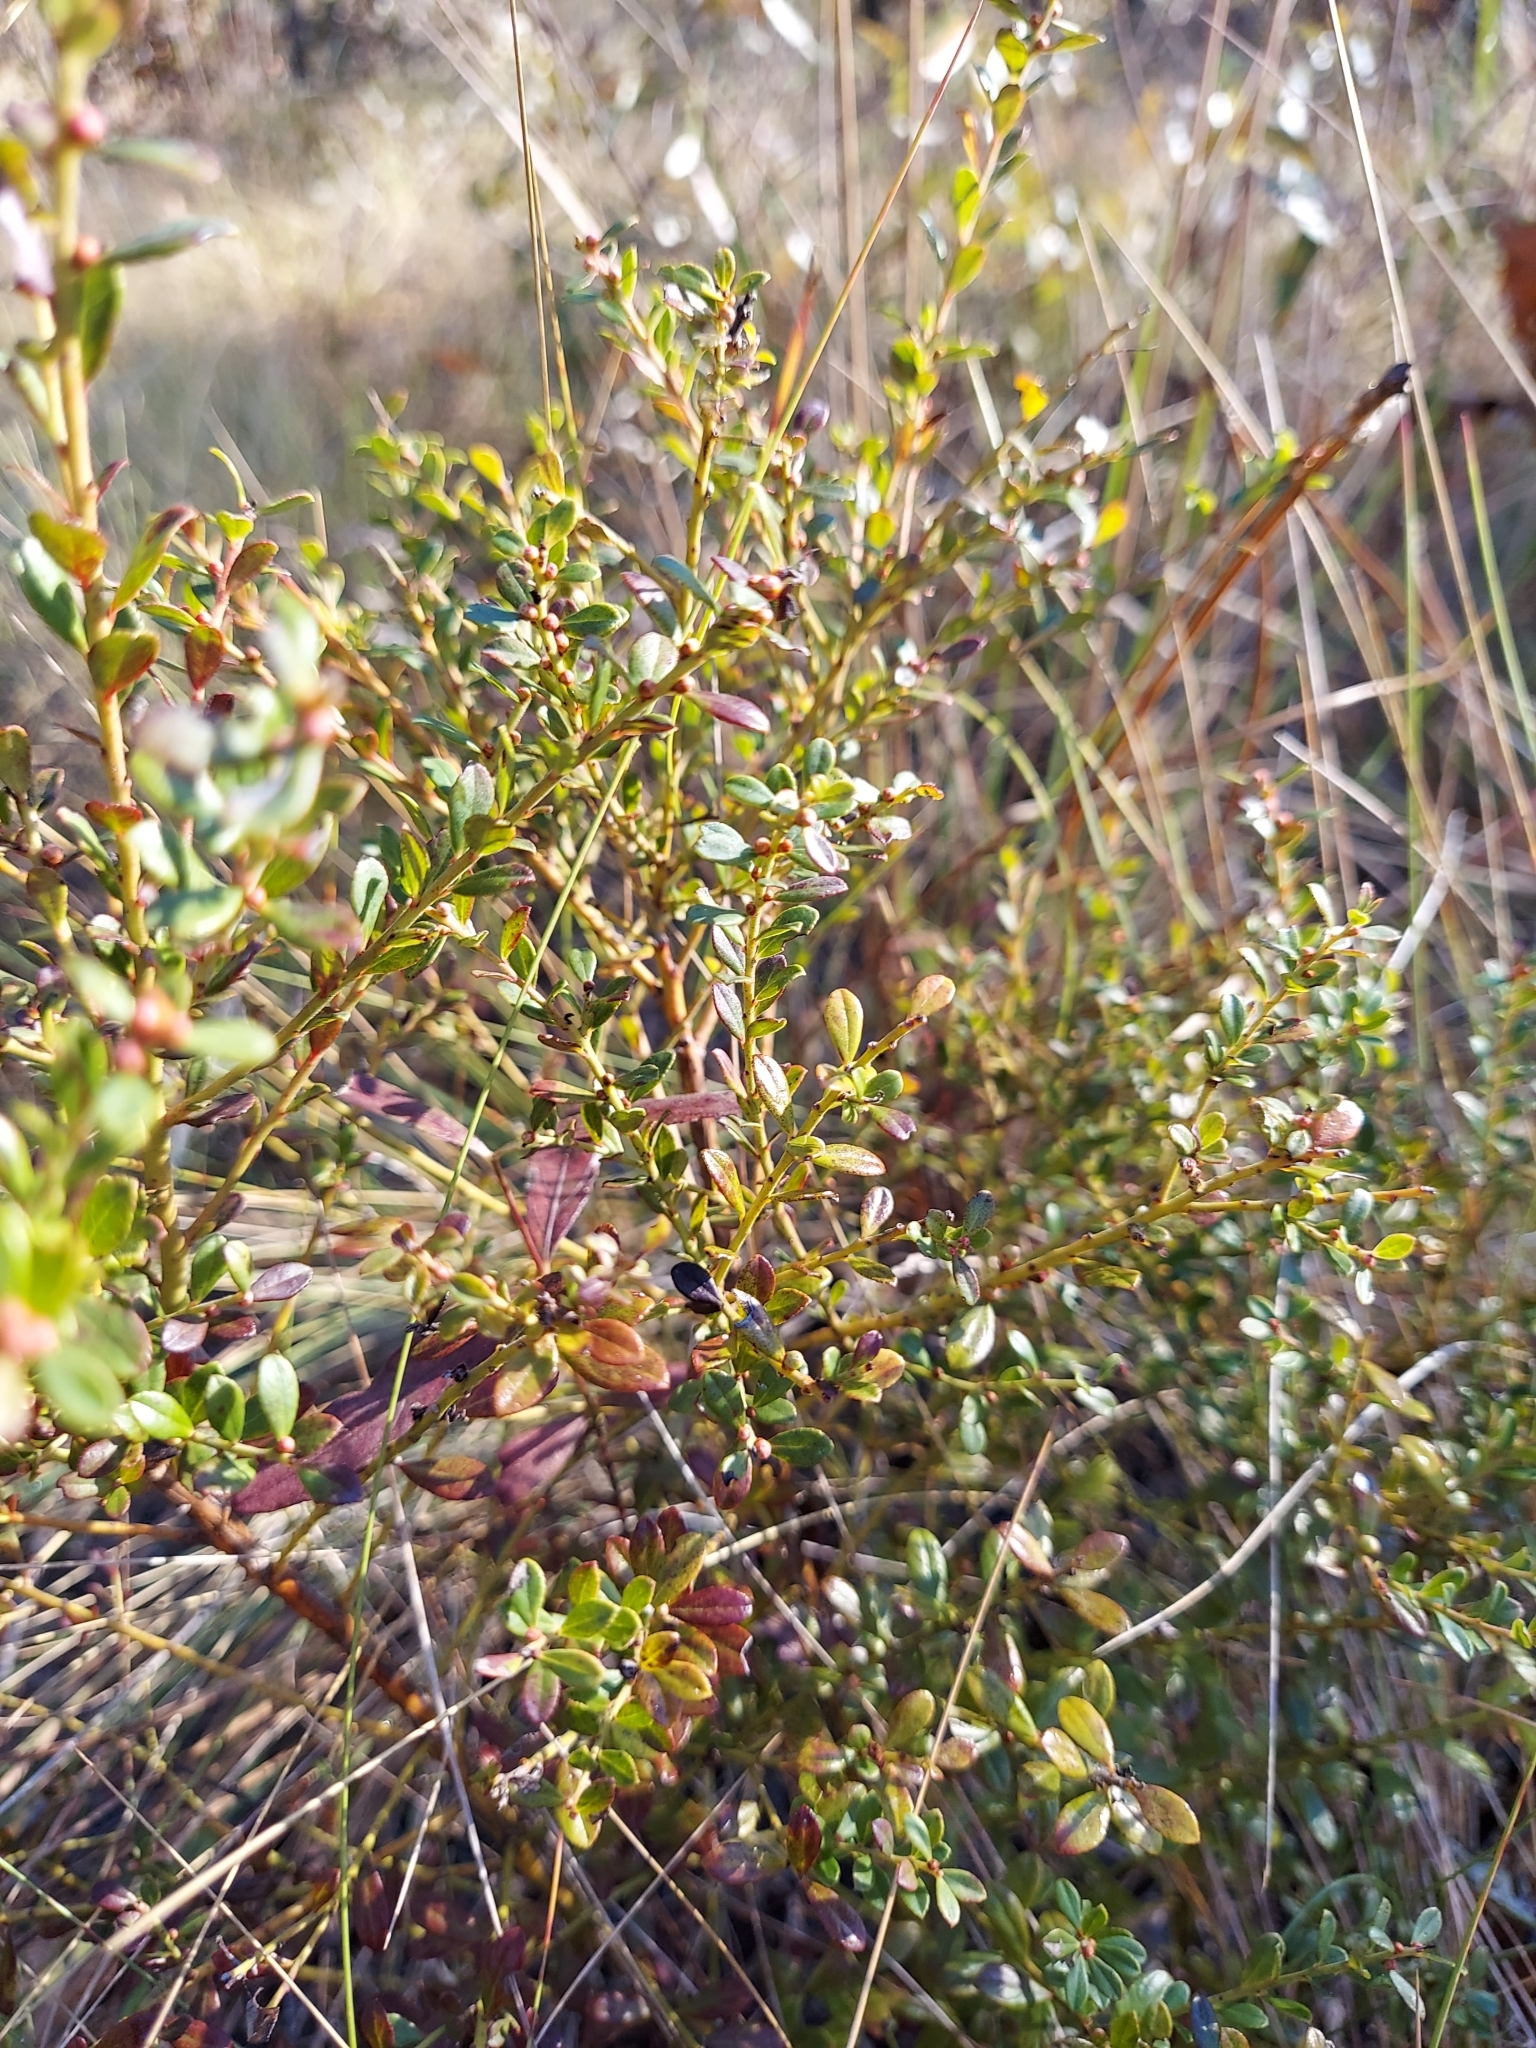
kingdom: Plantae
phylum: Tracheophyta
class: Magnoliopsida
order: Ericales
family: Ericaceae
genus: Vaccinium
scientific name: Vaccinium myrsinites
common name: Evergreen blueberry
